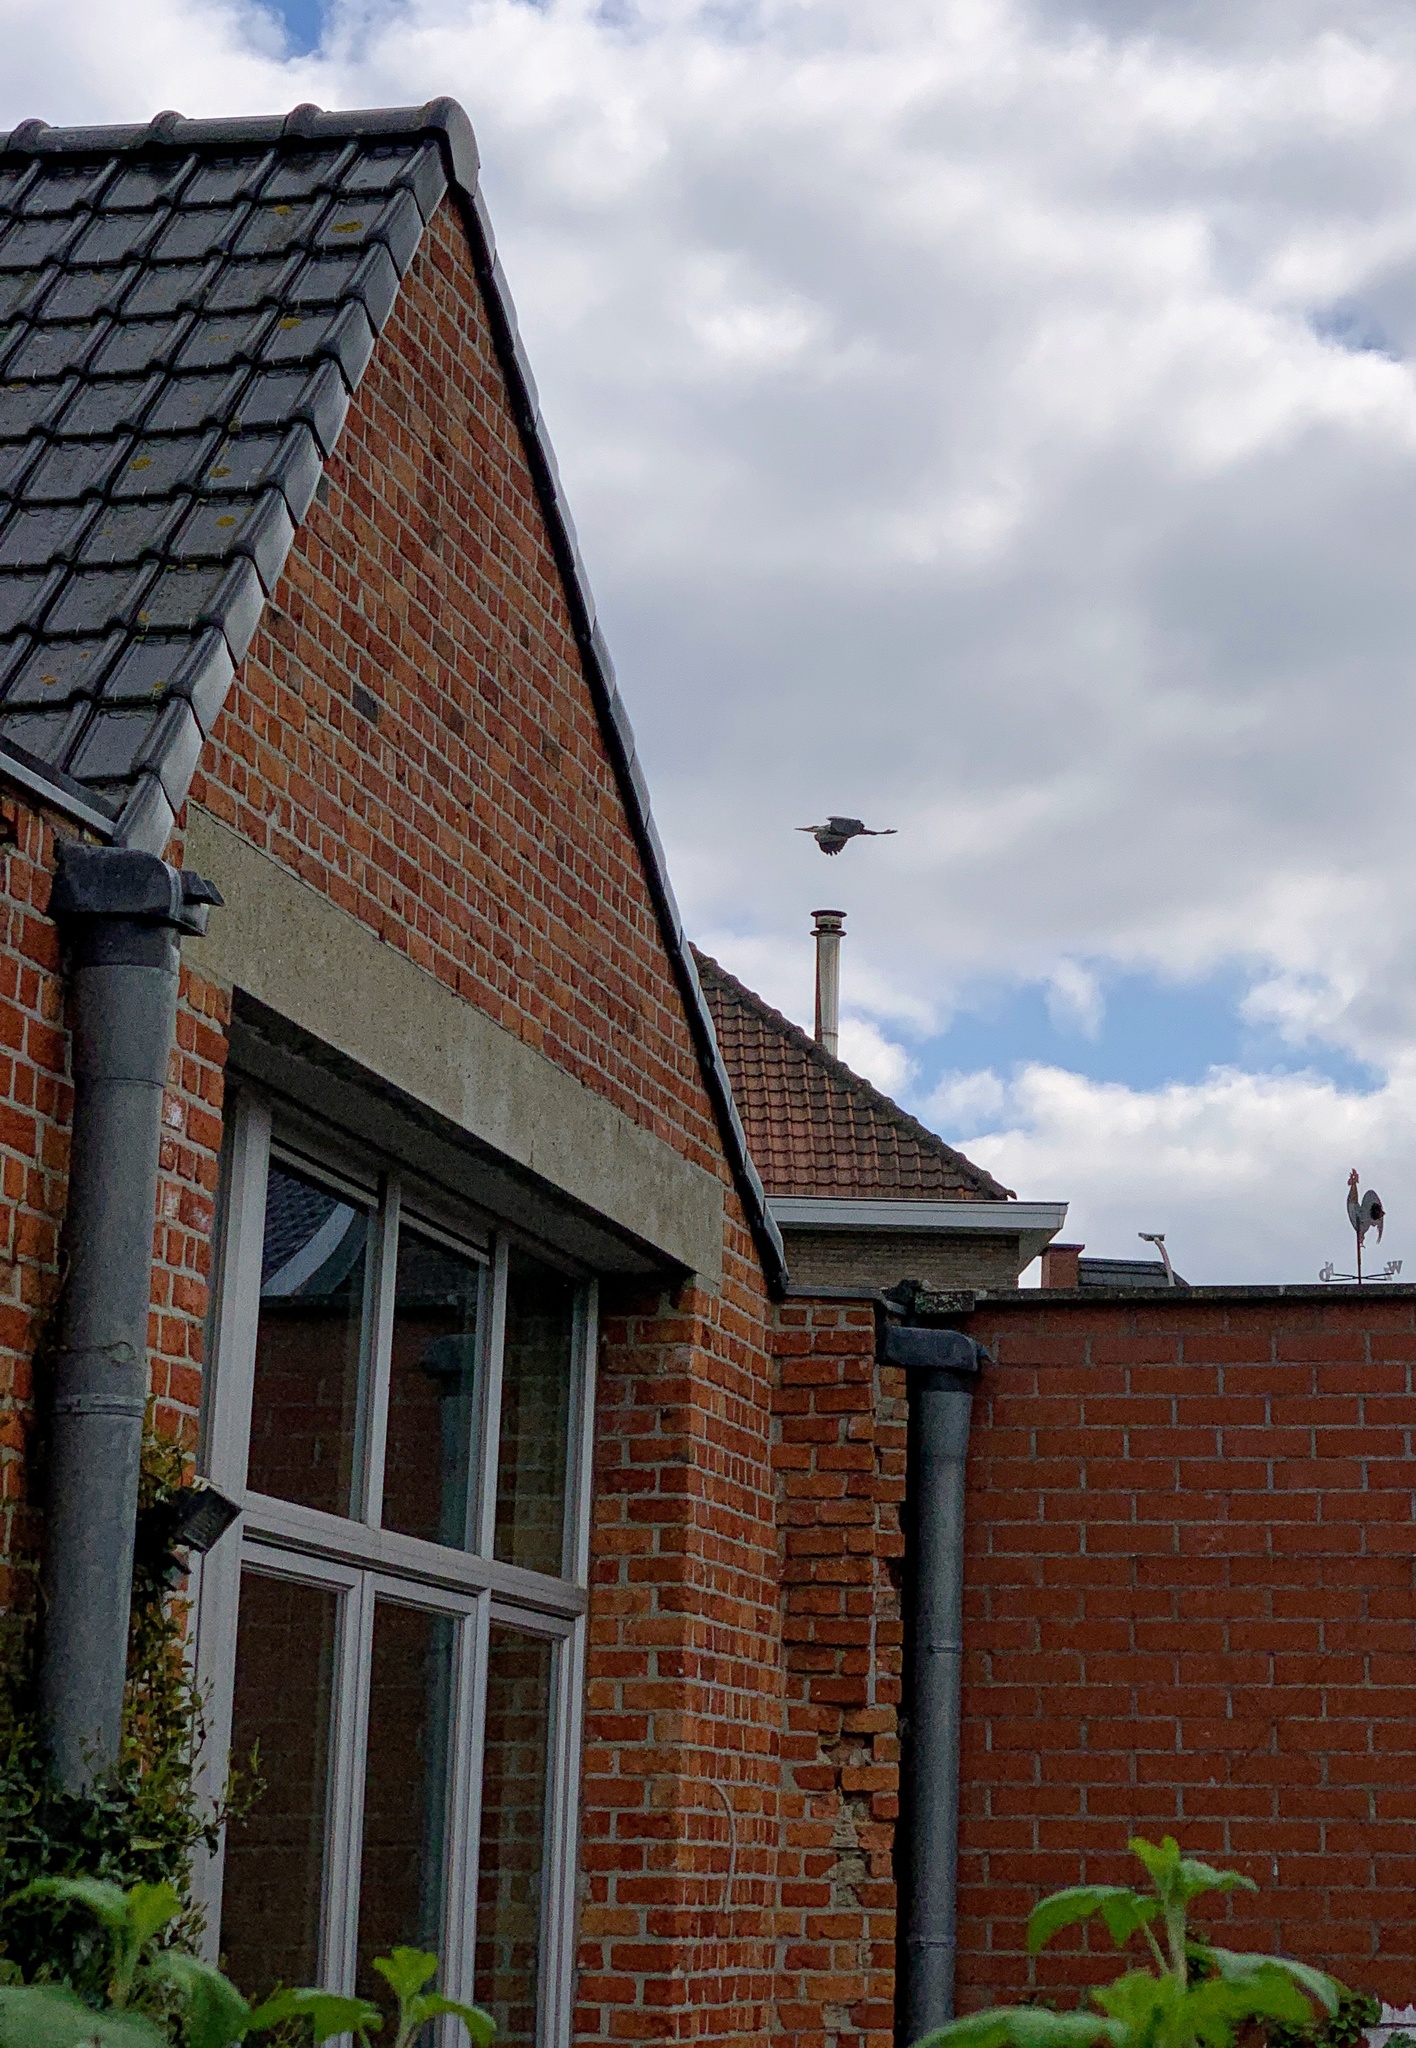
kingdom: Animalia
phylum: Chordata
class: Aves
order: Pelecaniformes
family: Ardeidae
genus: Ardea
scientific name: Ardea cinerea
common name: Grey heron
